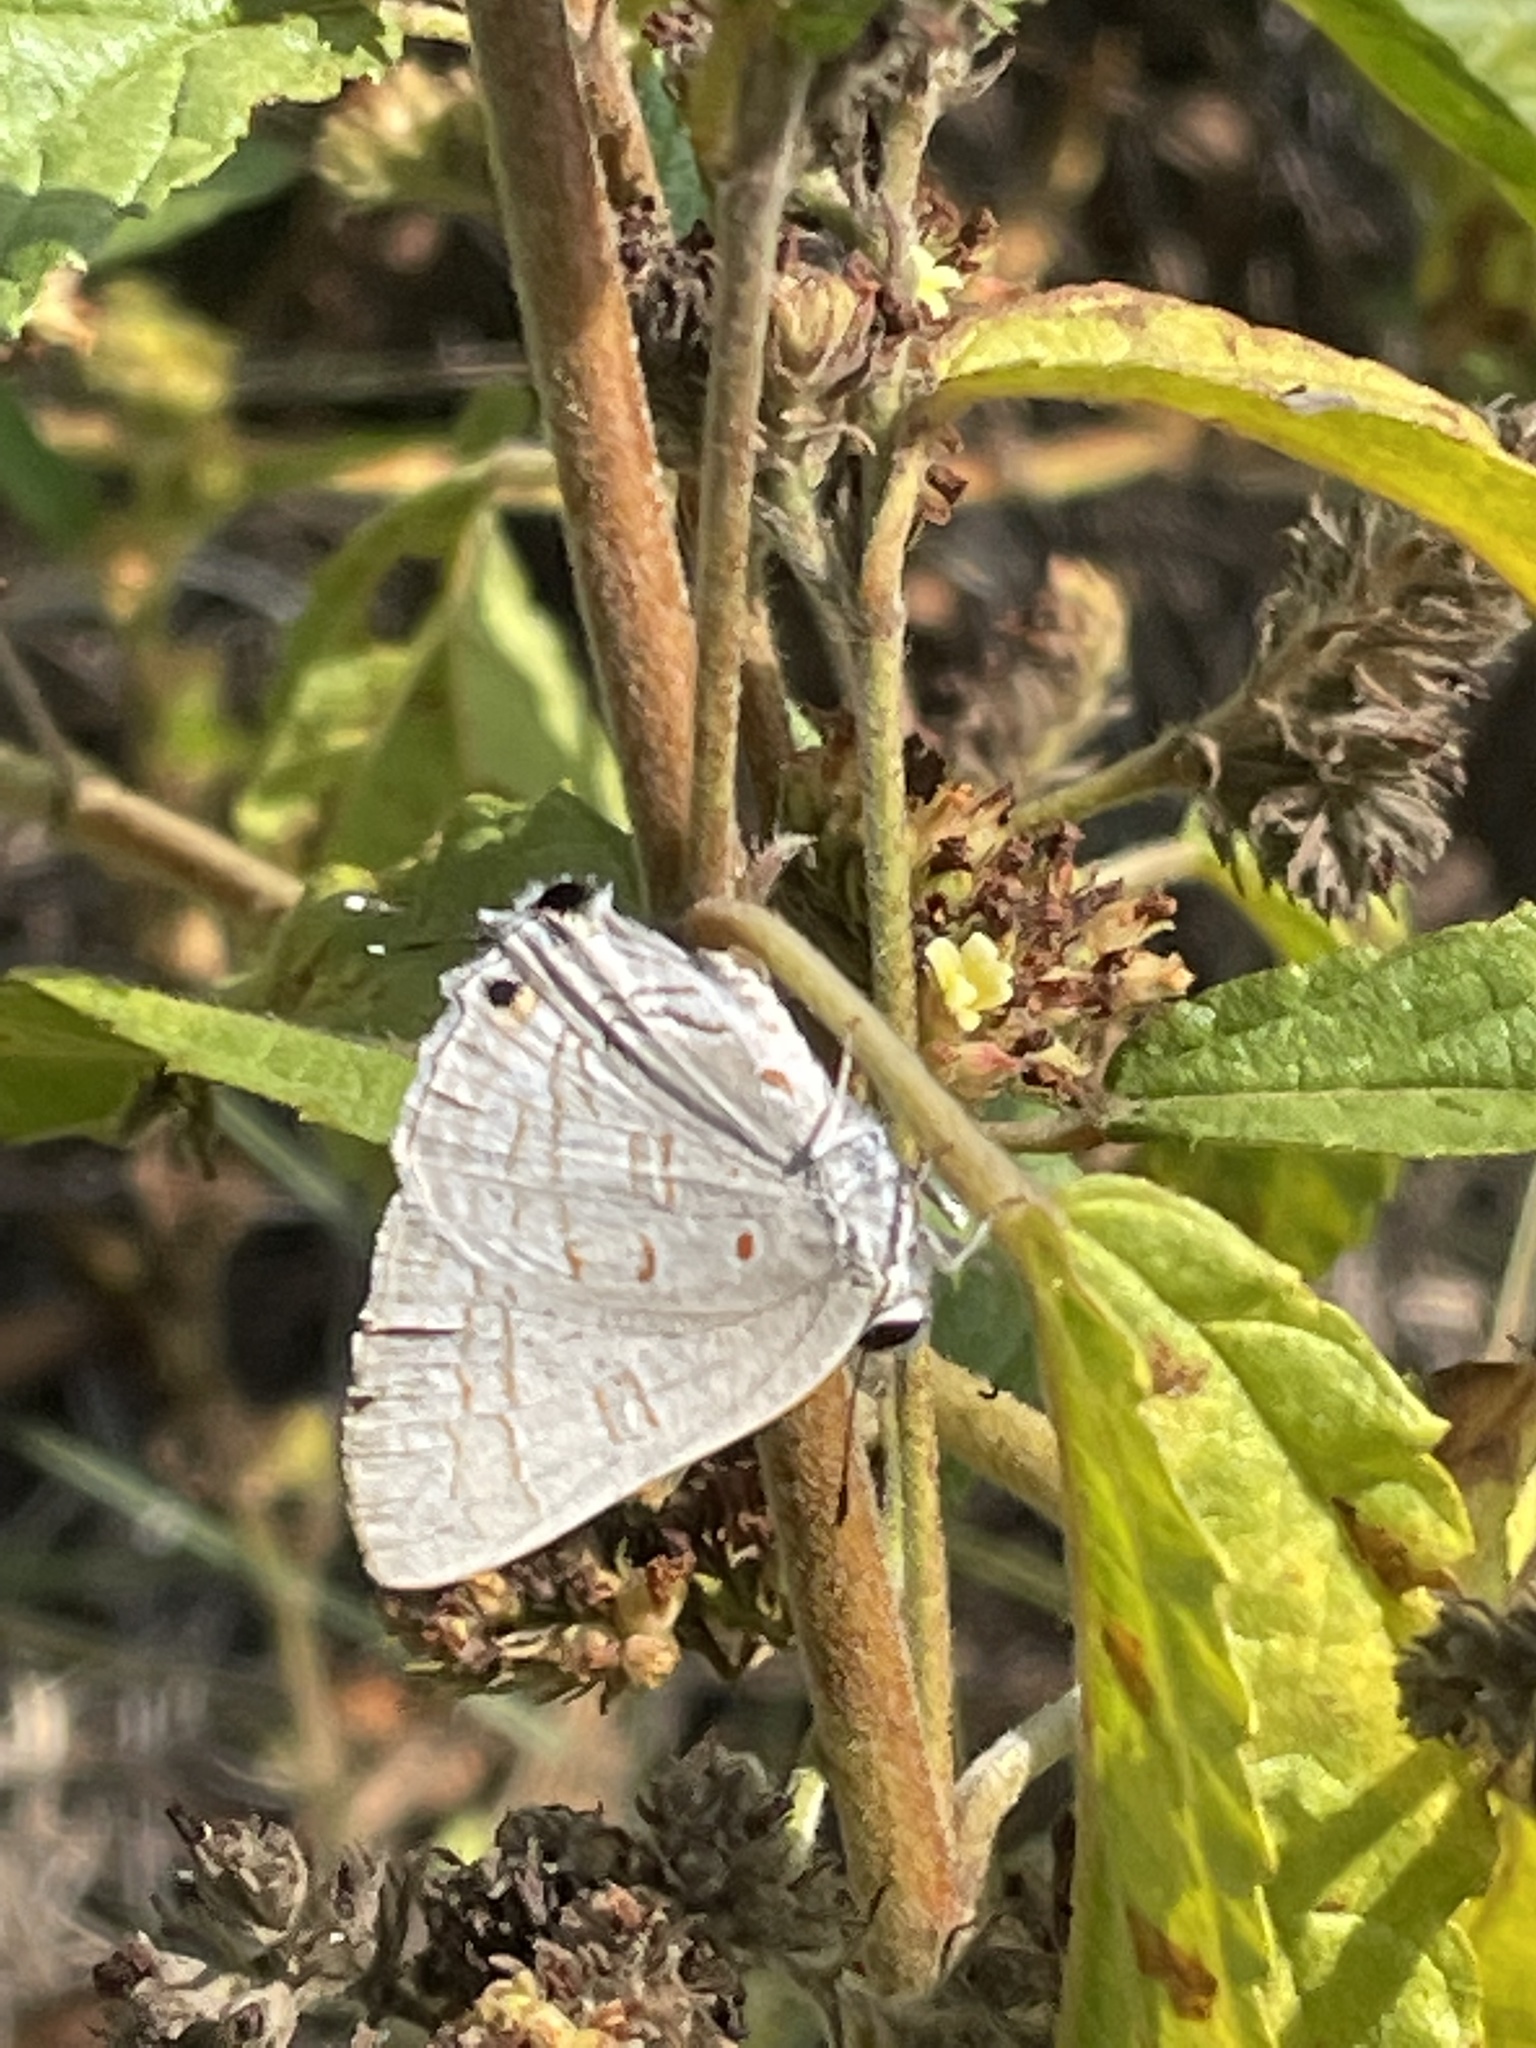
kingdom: Animalia
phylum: Arthropoda
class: Insecta
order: Lepidoptera
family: Lycaenidae
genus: Deudorix
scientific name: Deudorix dinochares
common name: Apricot playboy
